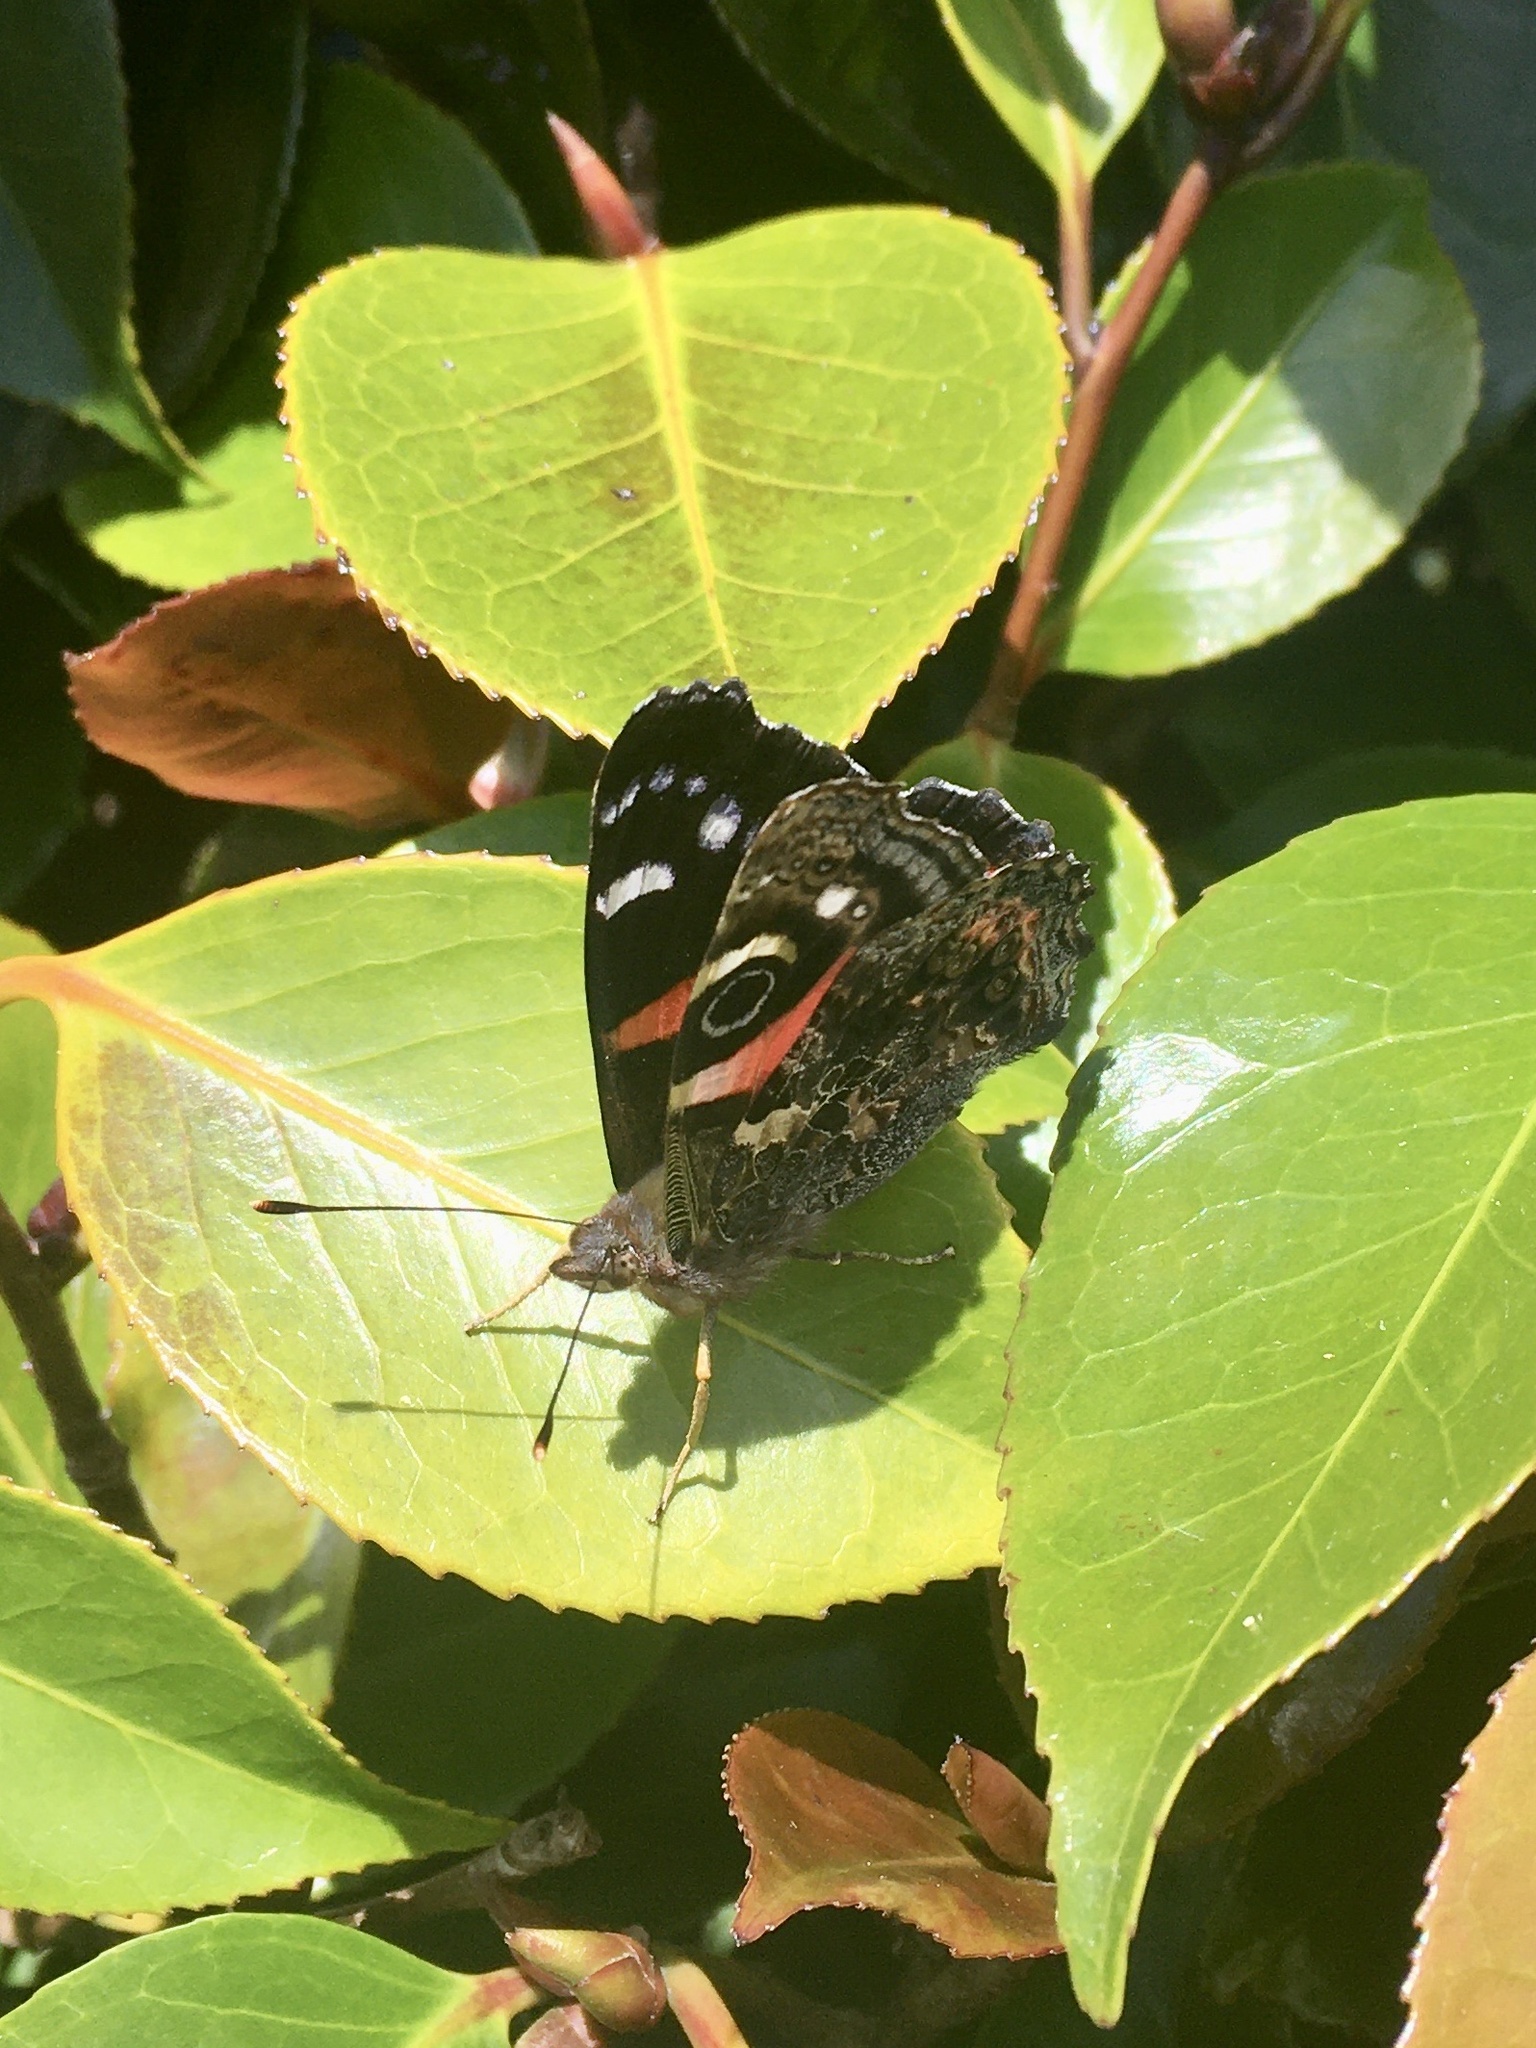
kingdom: Animalia
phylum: Arthropoda
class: Insecta
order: Lepidoptera
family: Nymphalidae
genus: Vanessa
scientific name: Vanessa gonerilla
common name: New zealand red admiral
